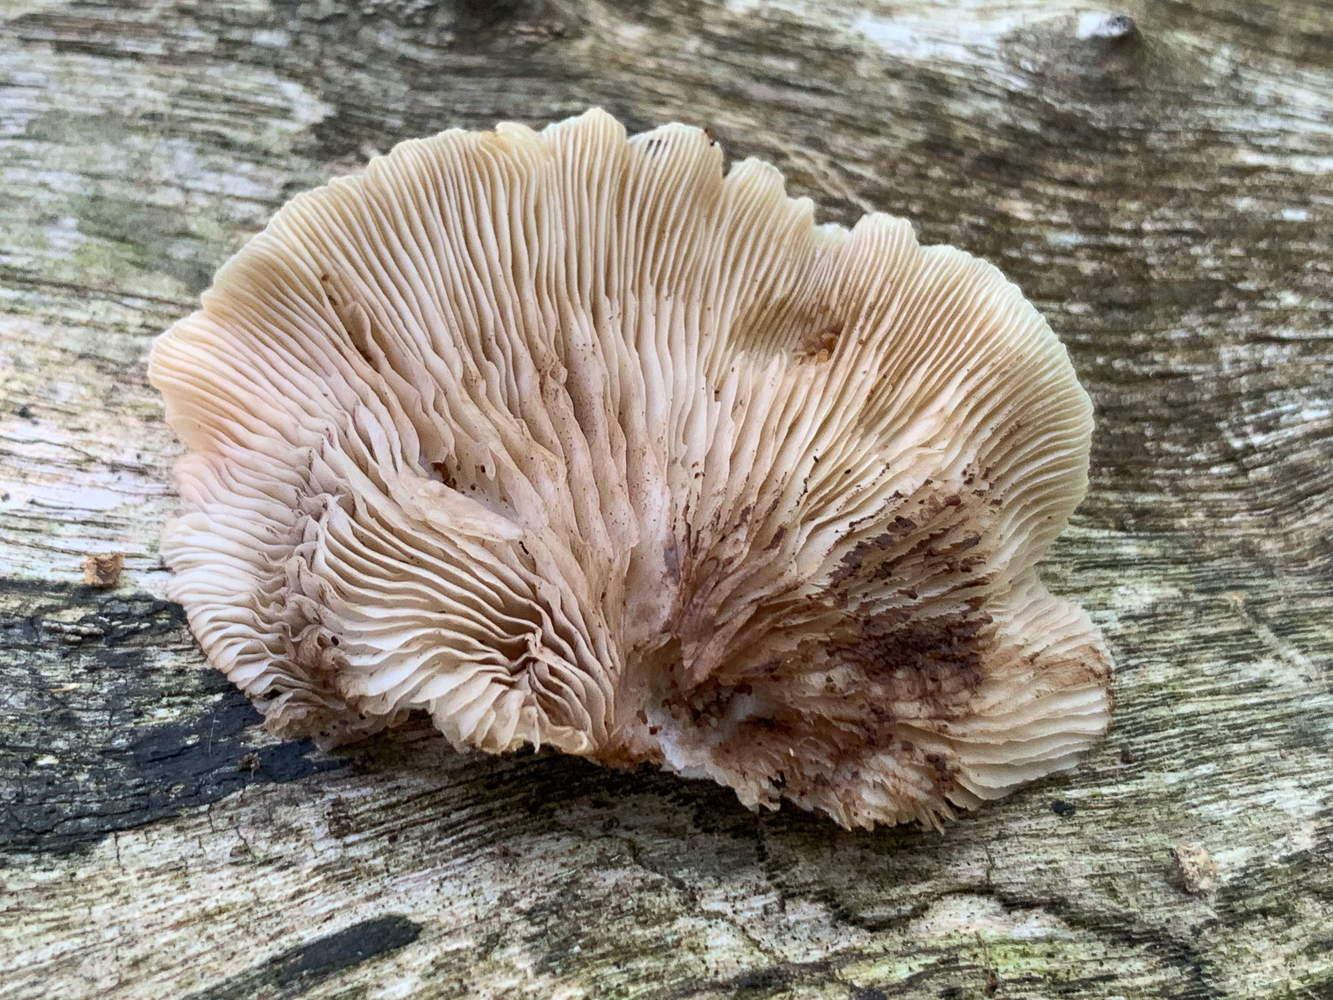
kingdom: Fungi
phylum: Basidiomycota
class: Agaricomycetes
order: Agaricales
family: Crepidotaceae
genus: Crepidotus
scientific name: Crepidotus applanatus
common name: Flat crep
